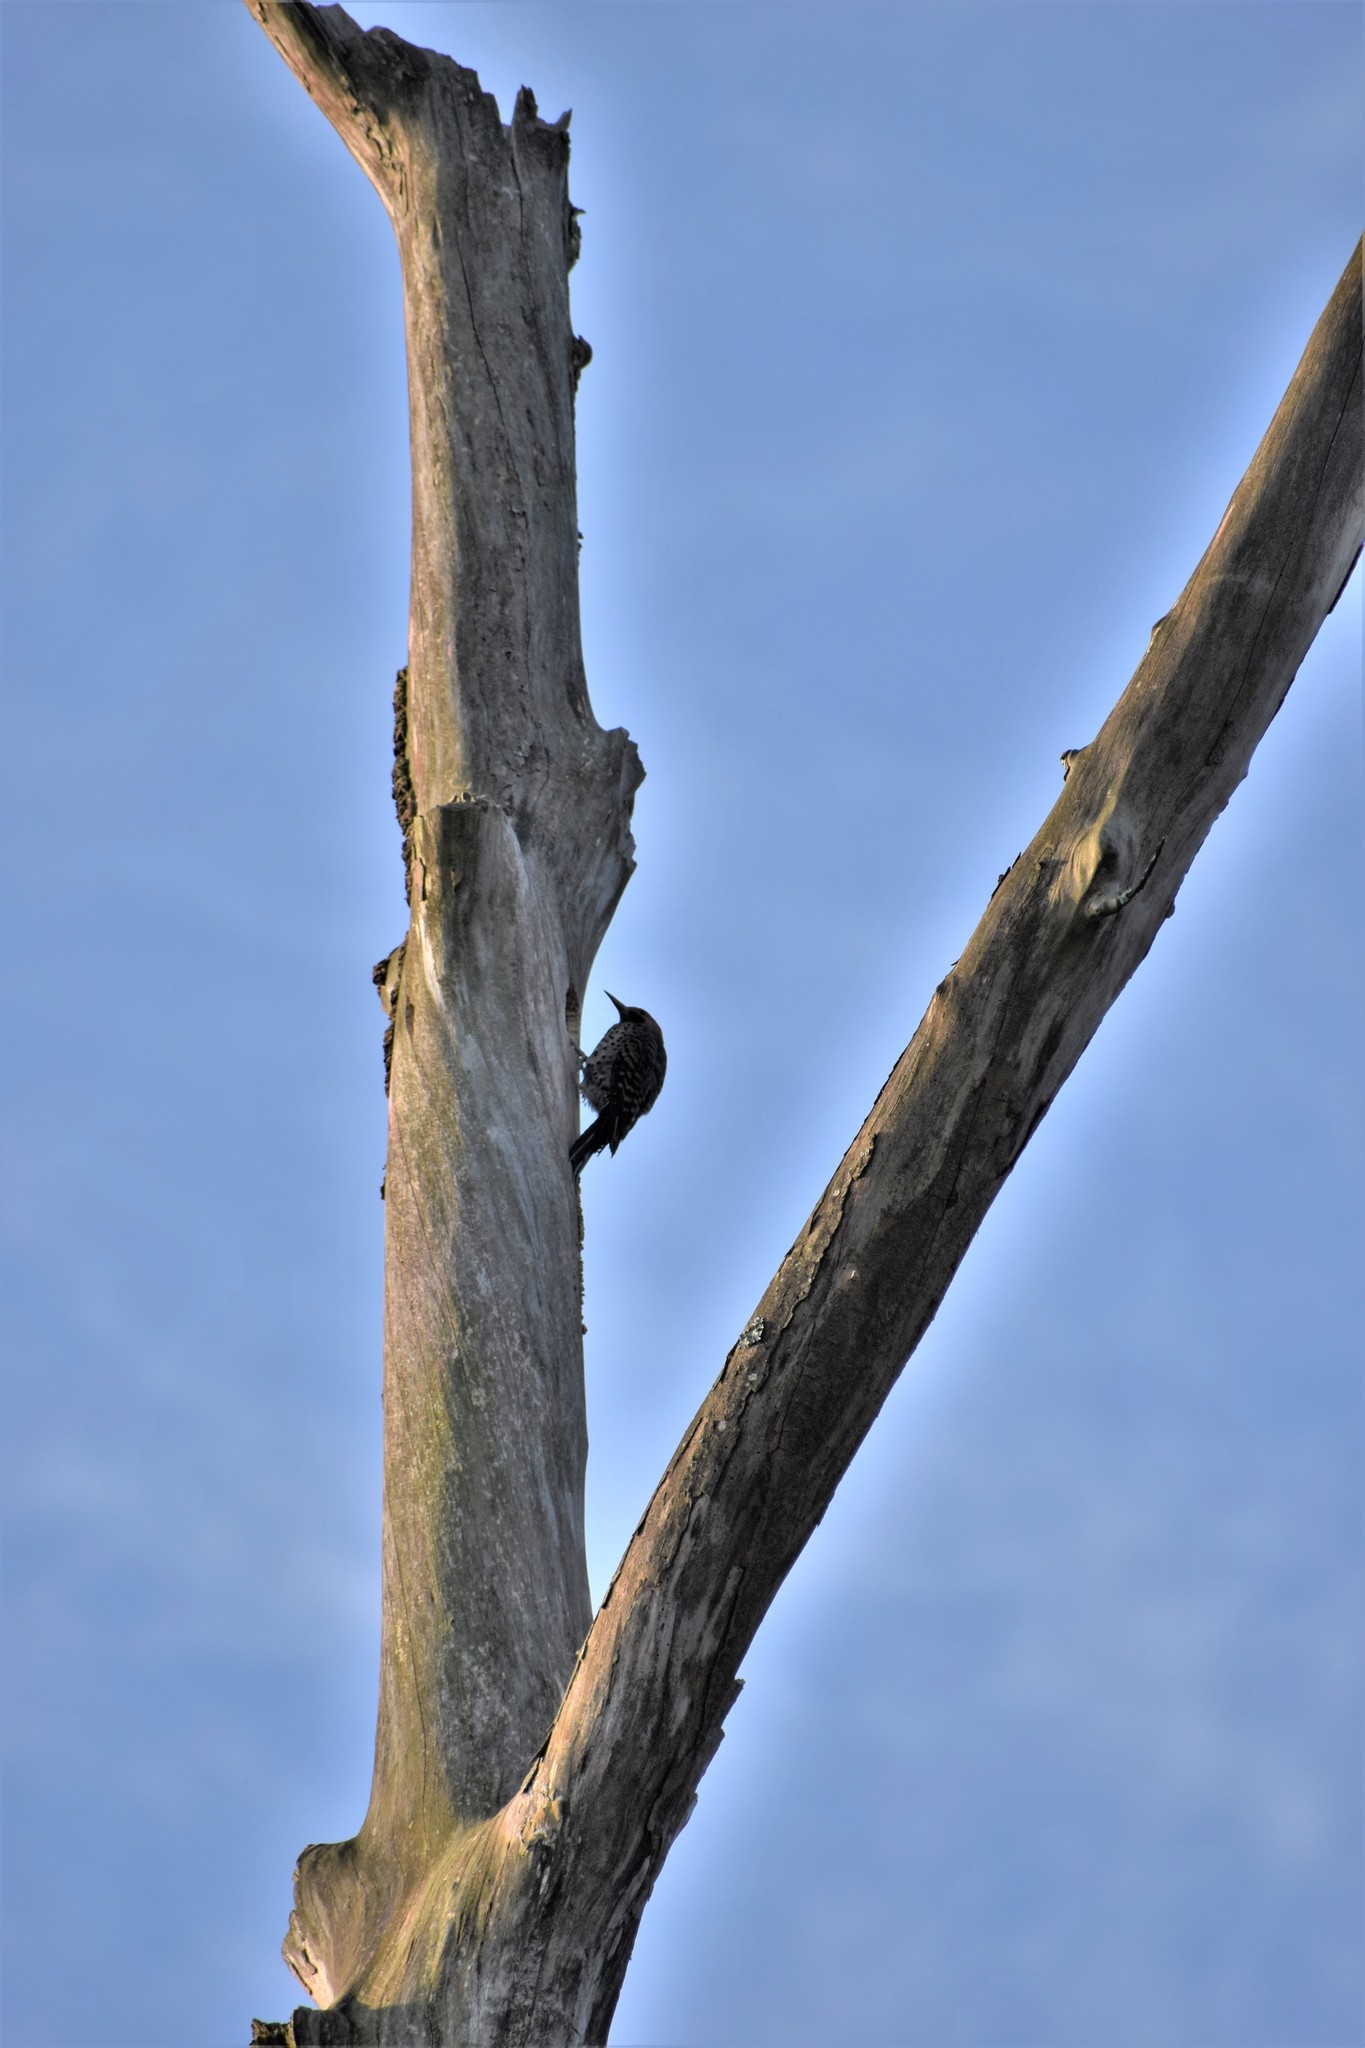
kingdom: Animalia
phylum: Chordata
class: Aves
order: Piciformes
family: Picidae
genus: Colaptes
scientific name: Colaptes auratus
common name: Northern flicker
